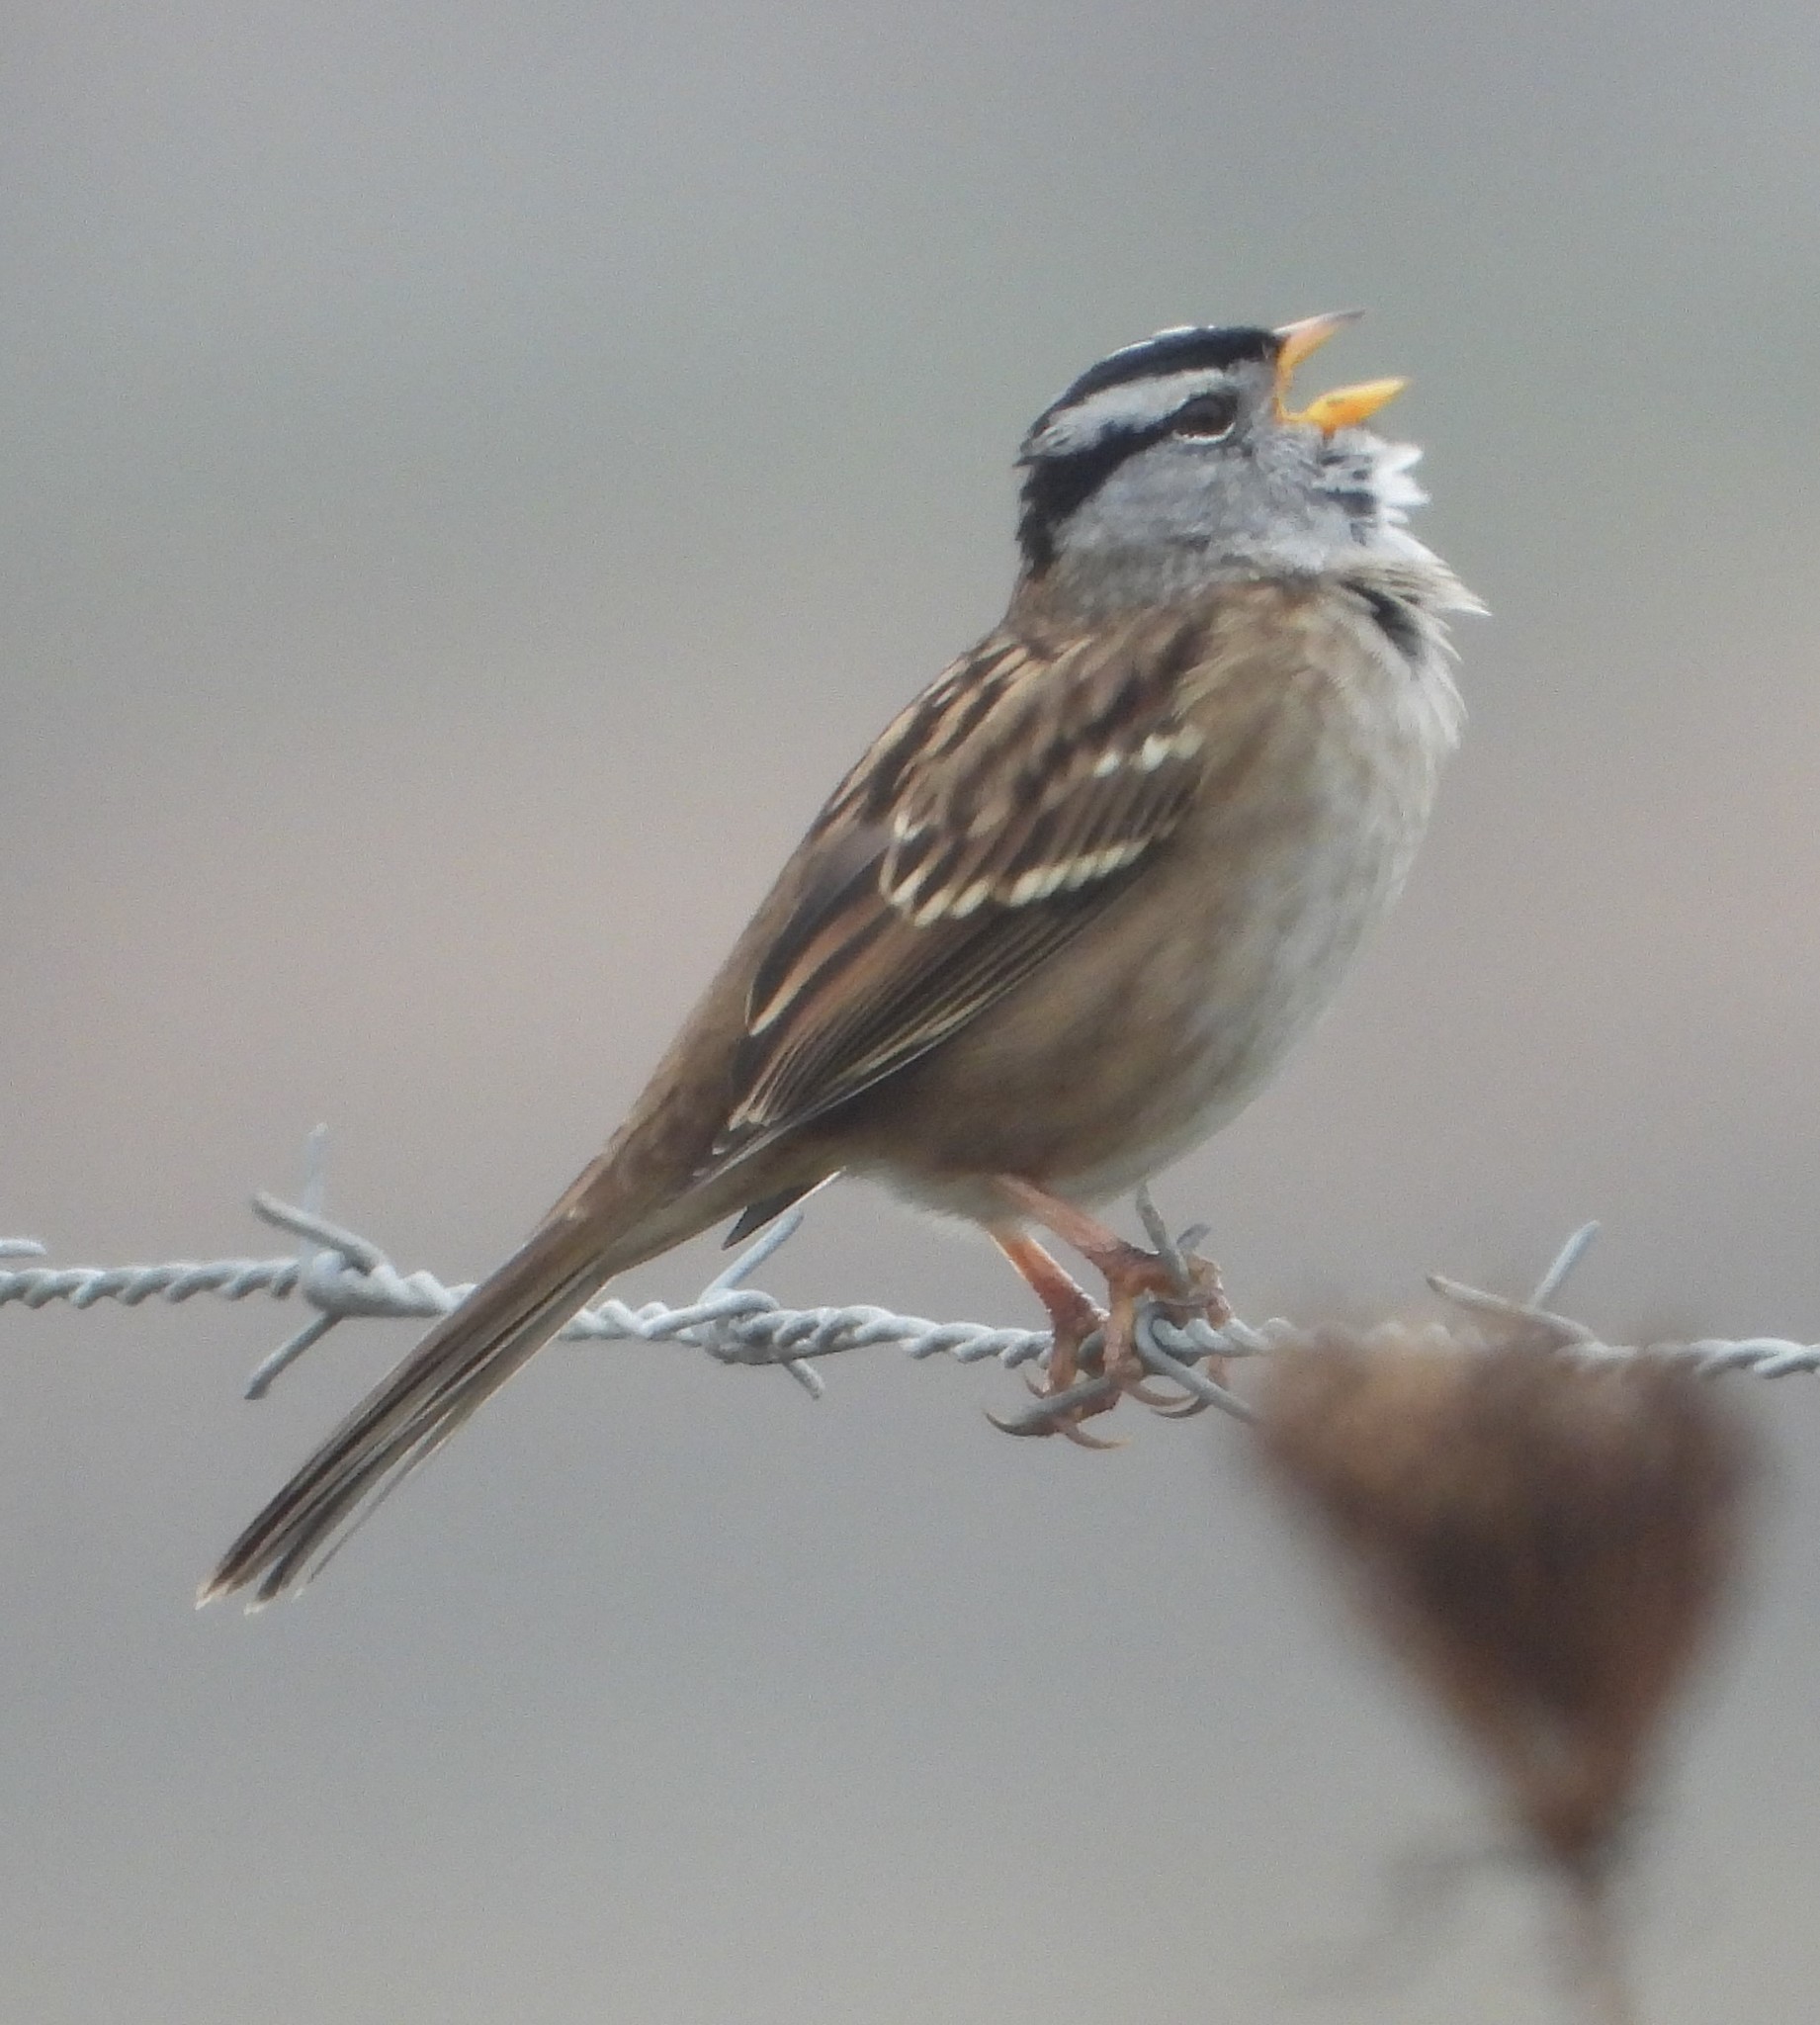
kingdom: Animalia
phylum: Chordata
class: Aves
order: Passeriformes
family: Passerellidae
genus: Zonotrichia
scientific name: Zonotrichia leucophrys
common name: White-crowned sparrow
